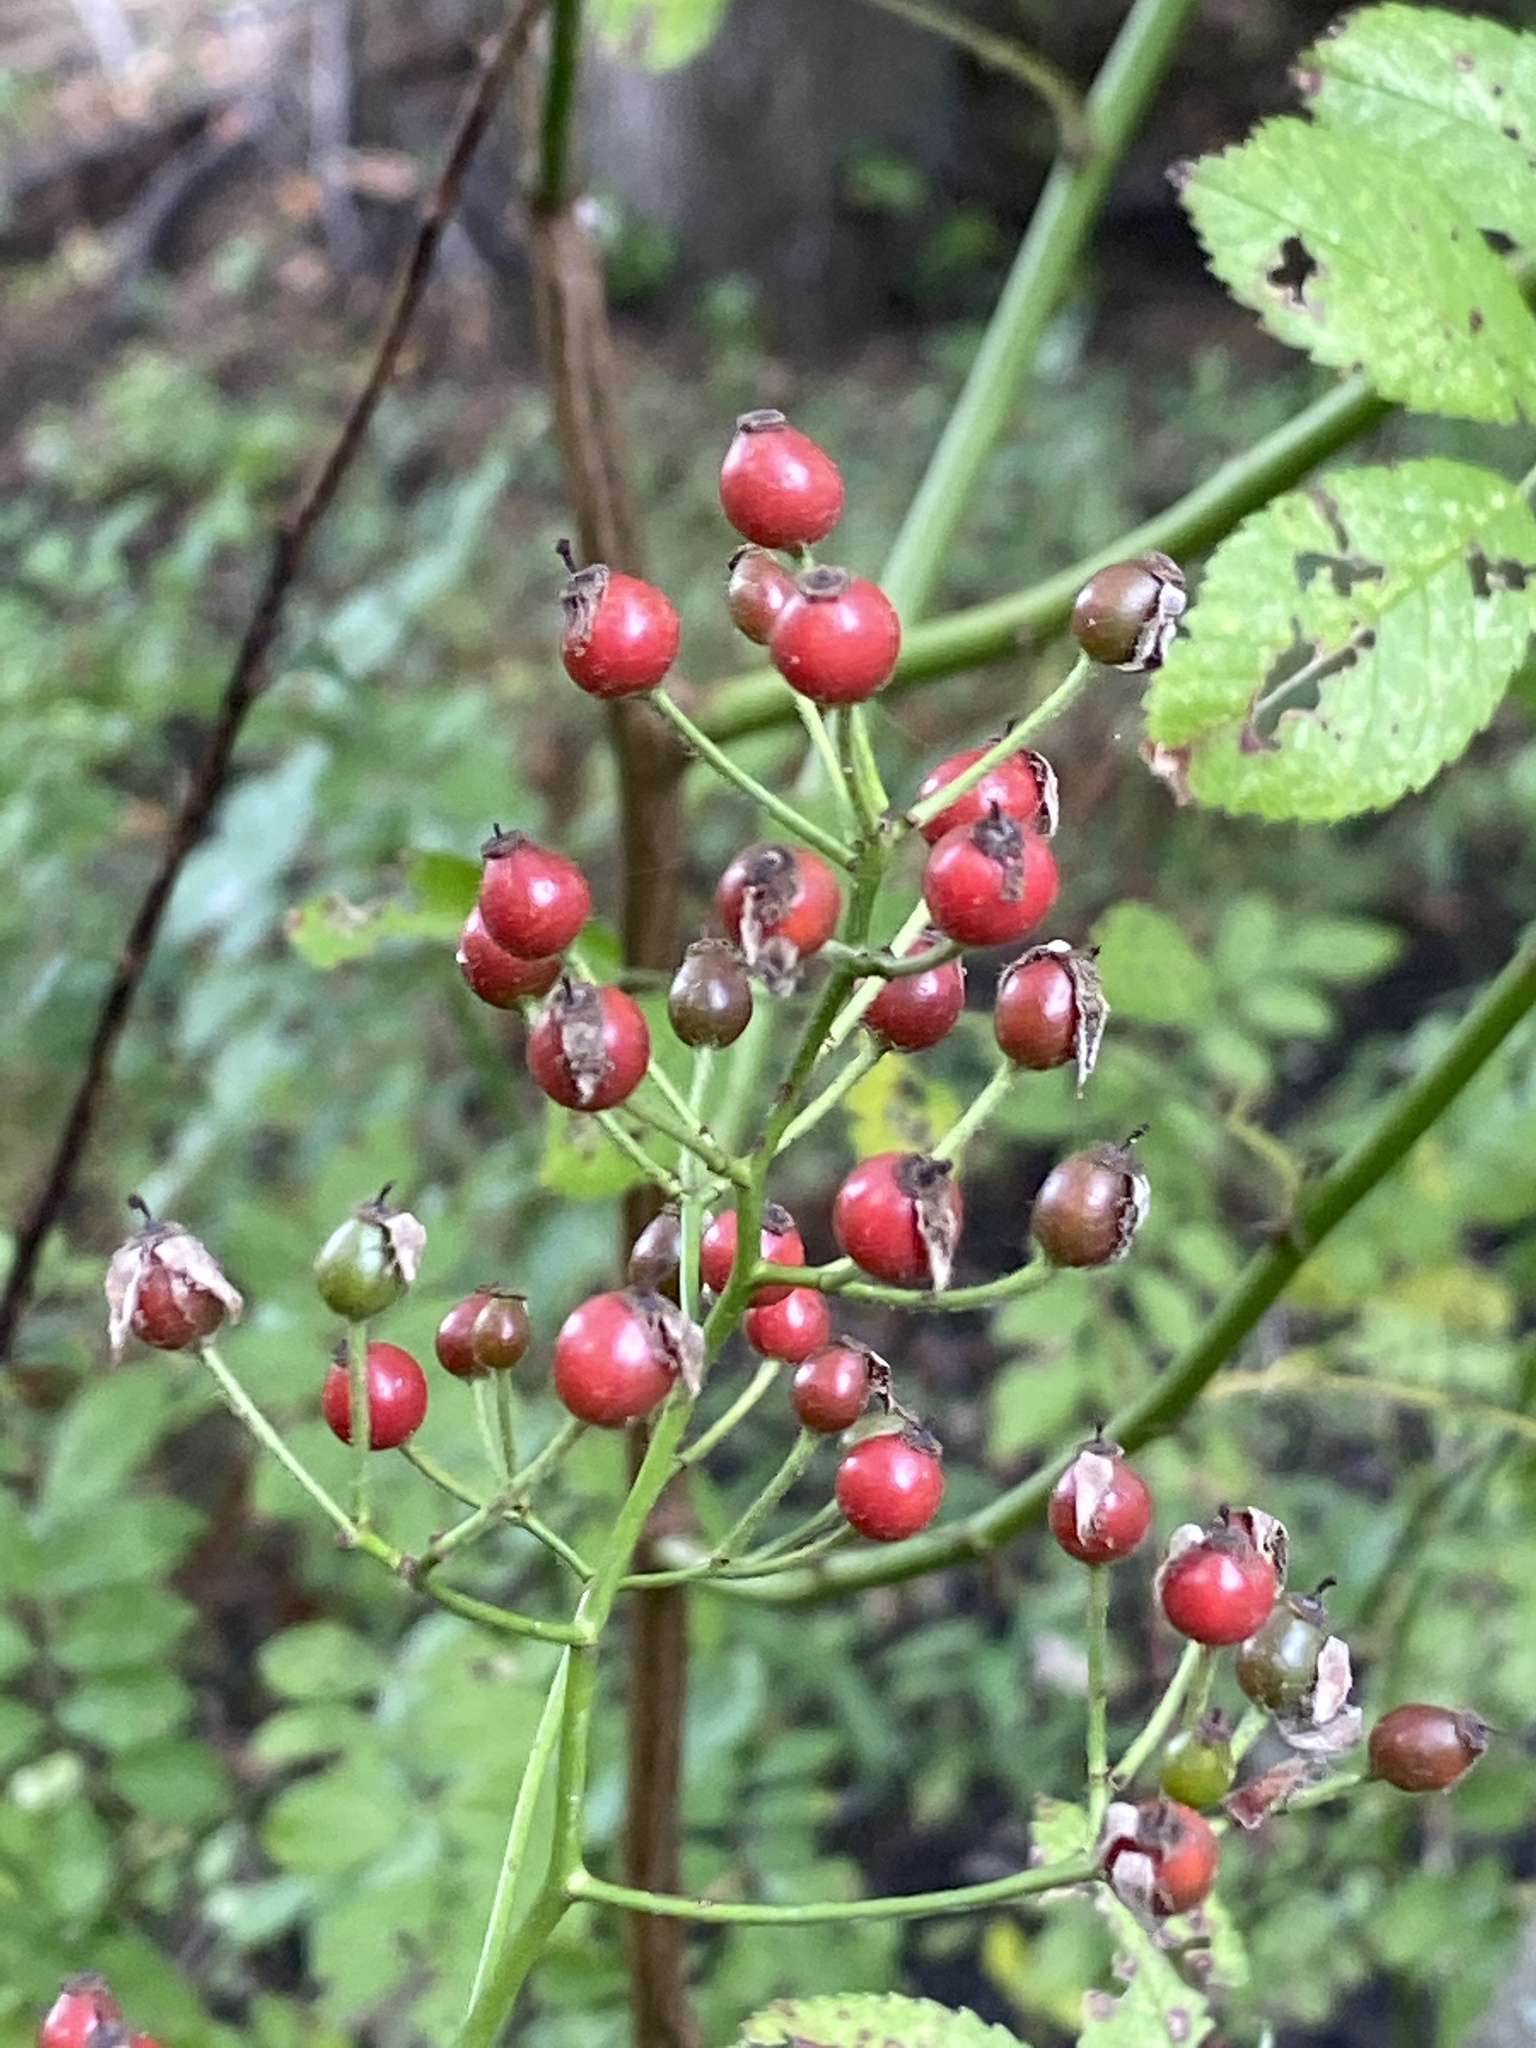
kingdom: Plantae
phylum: Tracheophyta
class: Magnoliopsida
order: Rosales
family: Rosaceae
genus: Rosa
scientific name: Rosa multiflora
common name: Multiflora rose
